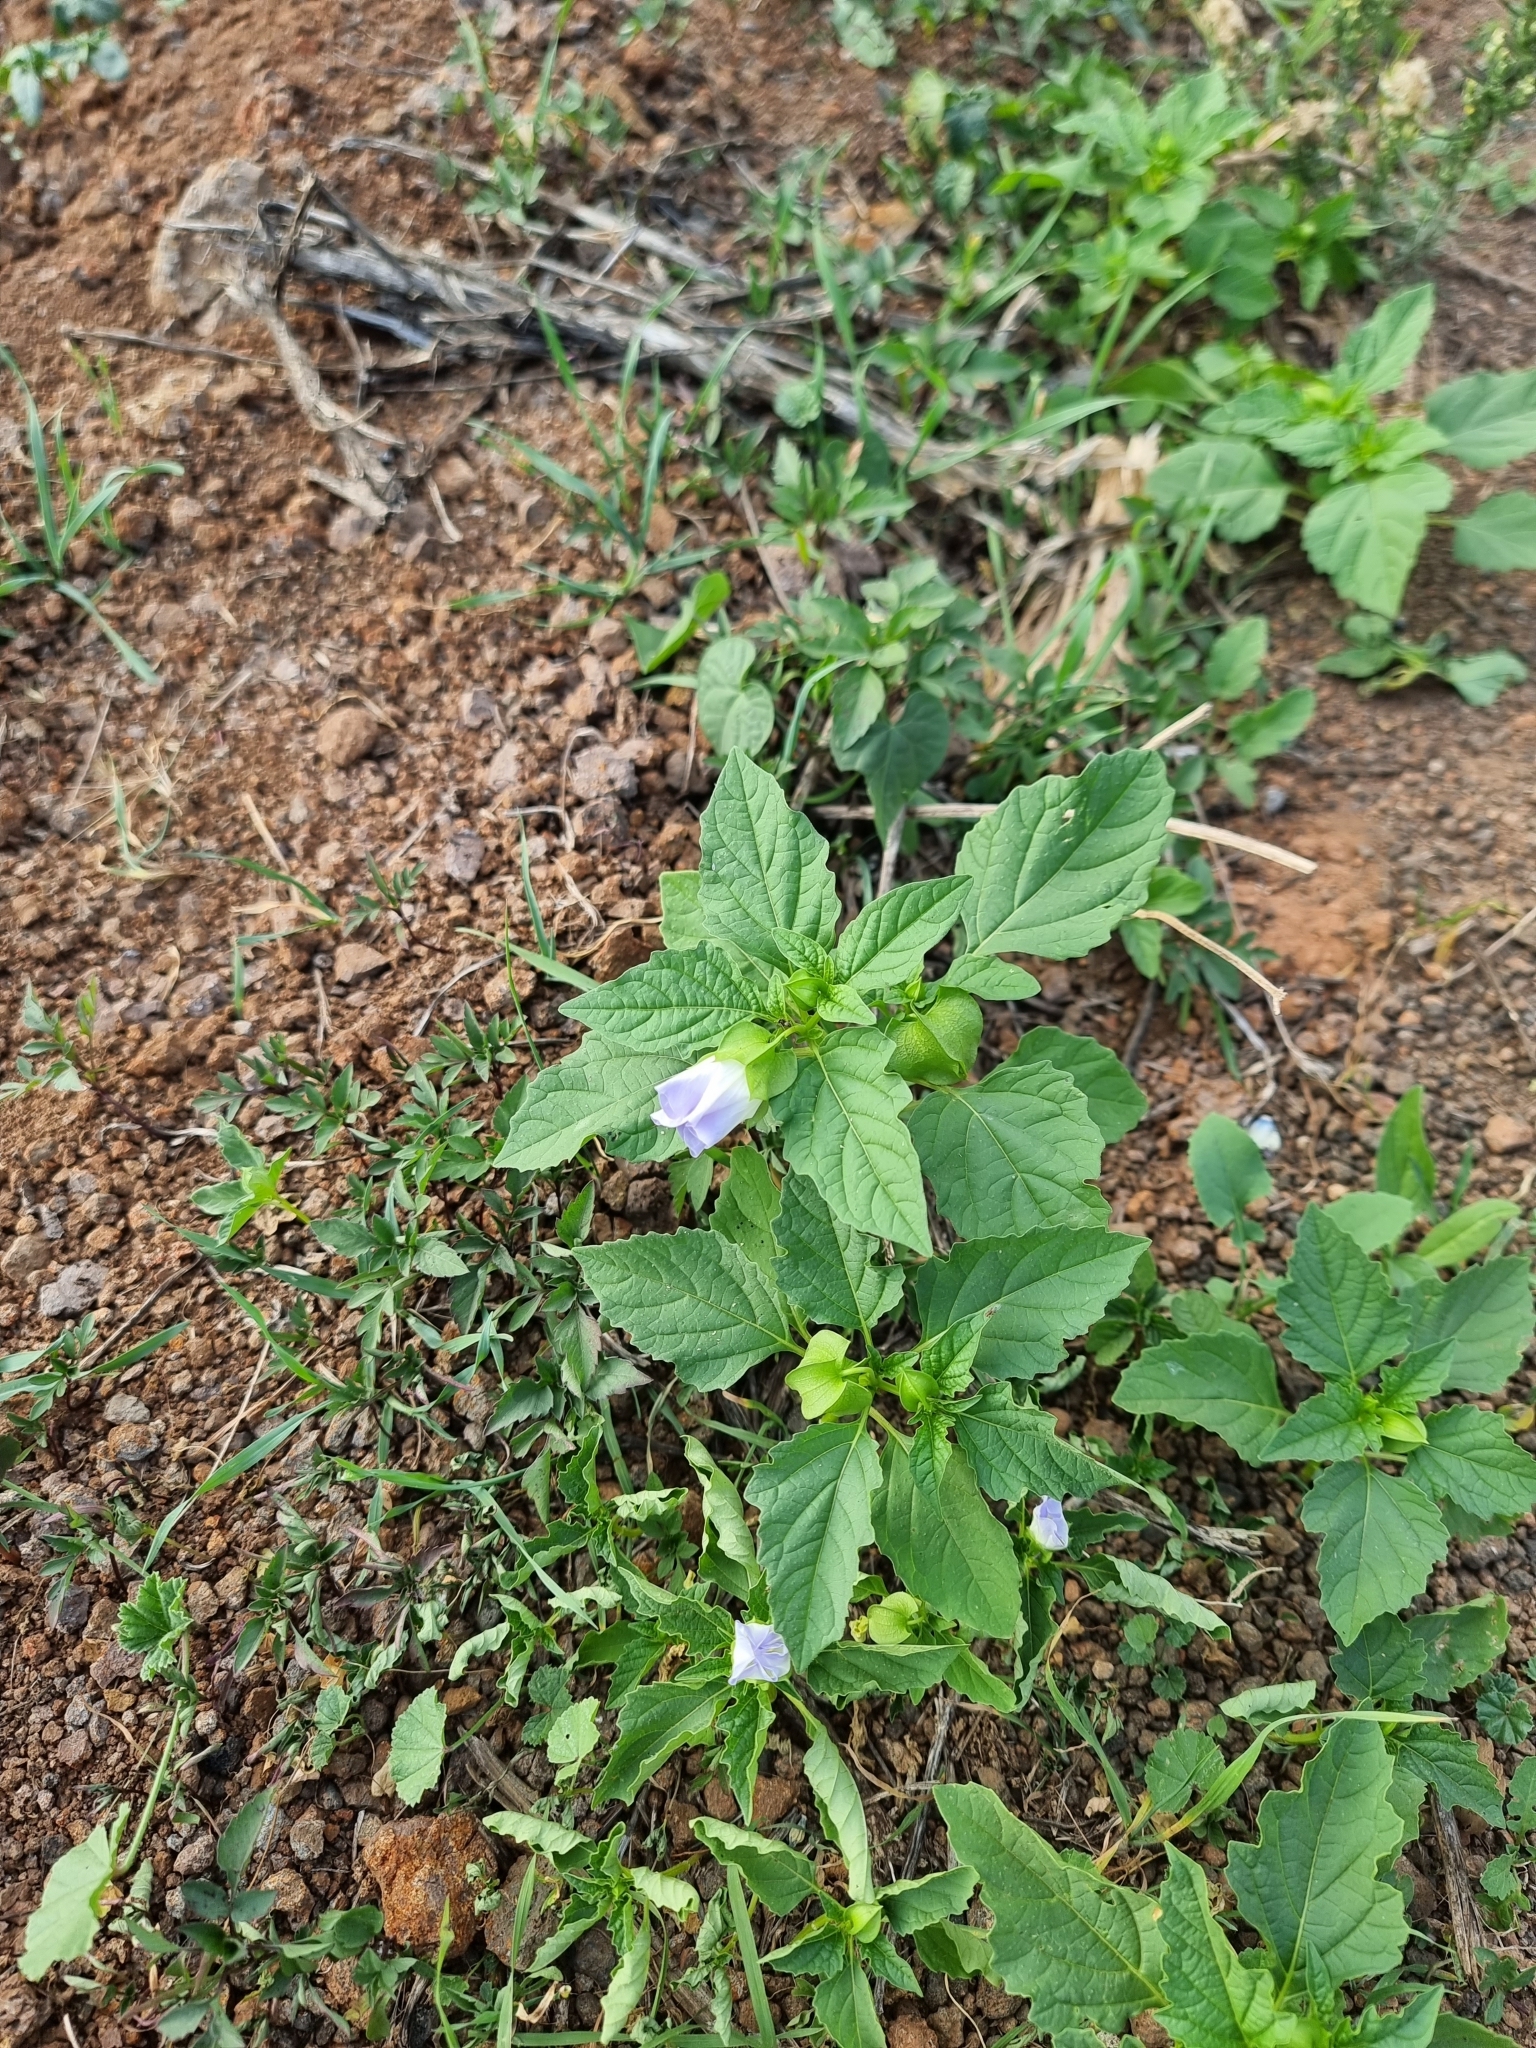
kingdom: Plantae
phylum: Tracheophyta
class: Magnoliopsida
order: Solanales
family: Solanaceae
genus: Nicandra
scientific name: Nicandra physalodes
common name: Apple-of-peru
